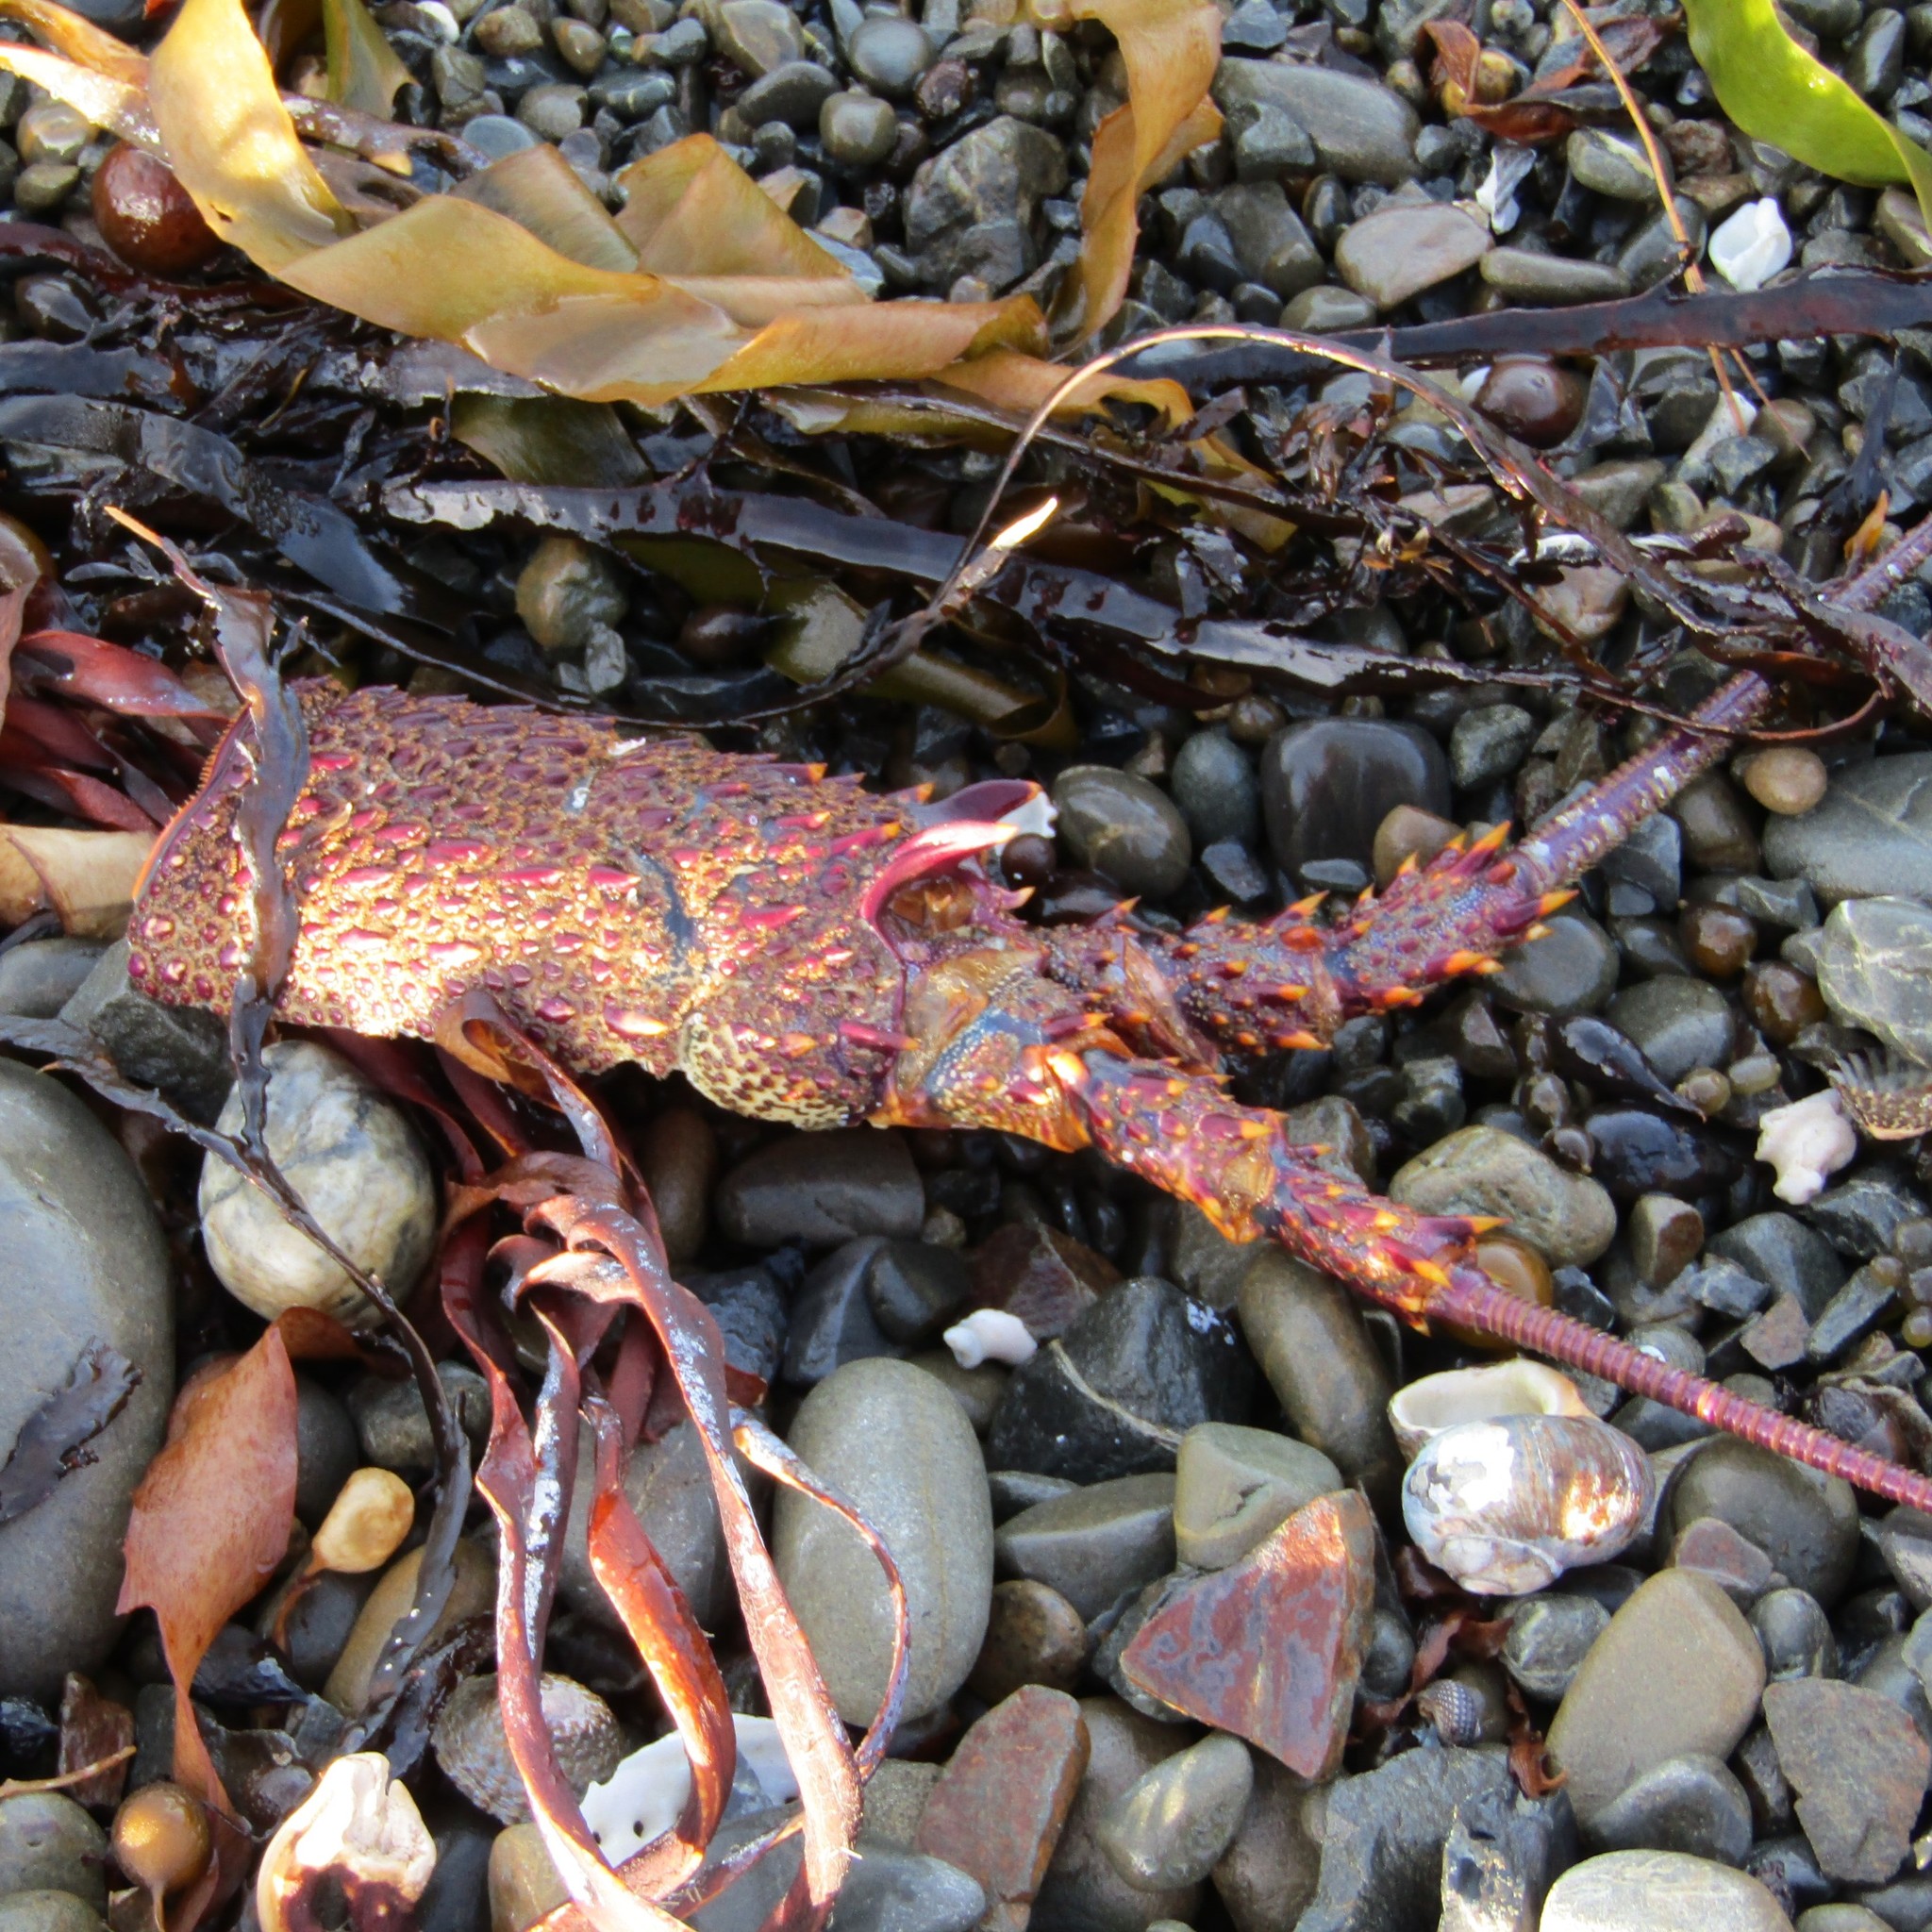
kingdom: Animalia
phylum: Arthropoda
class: Malacostraca
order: Decapoda
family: Palinuridae
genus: Jasus
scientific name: Jasus edwardsii
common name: Red rock lobster
